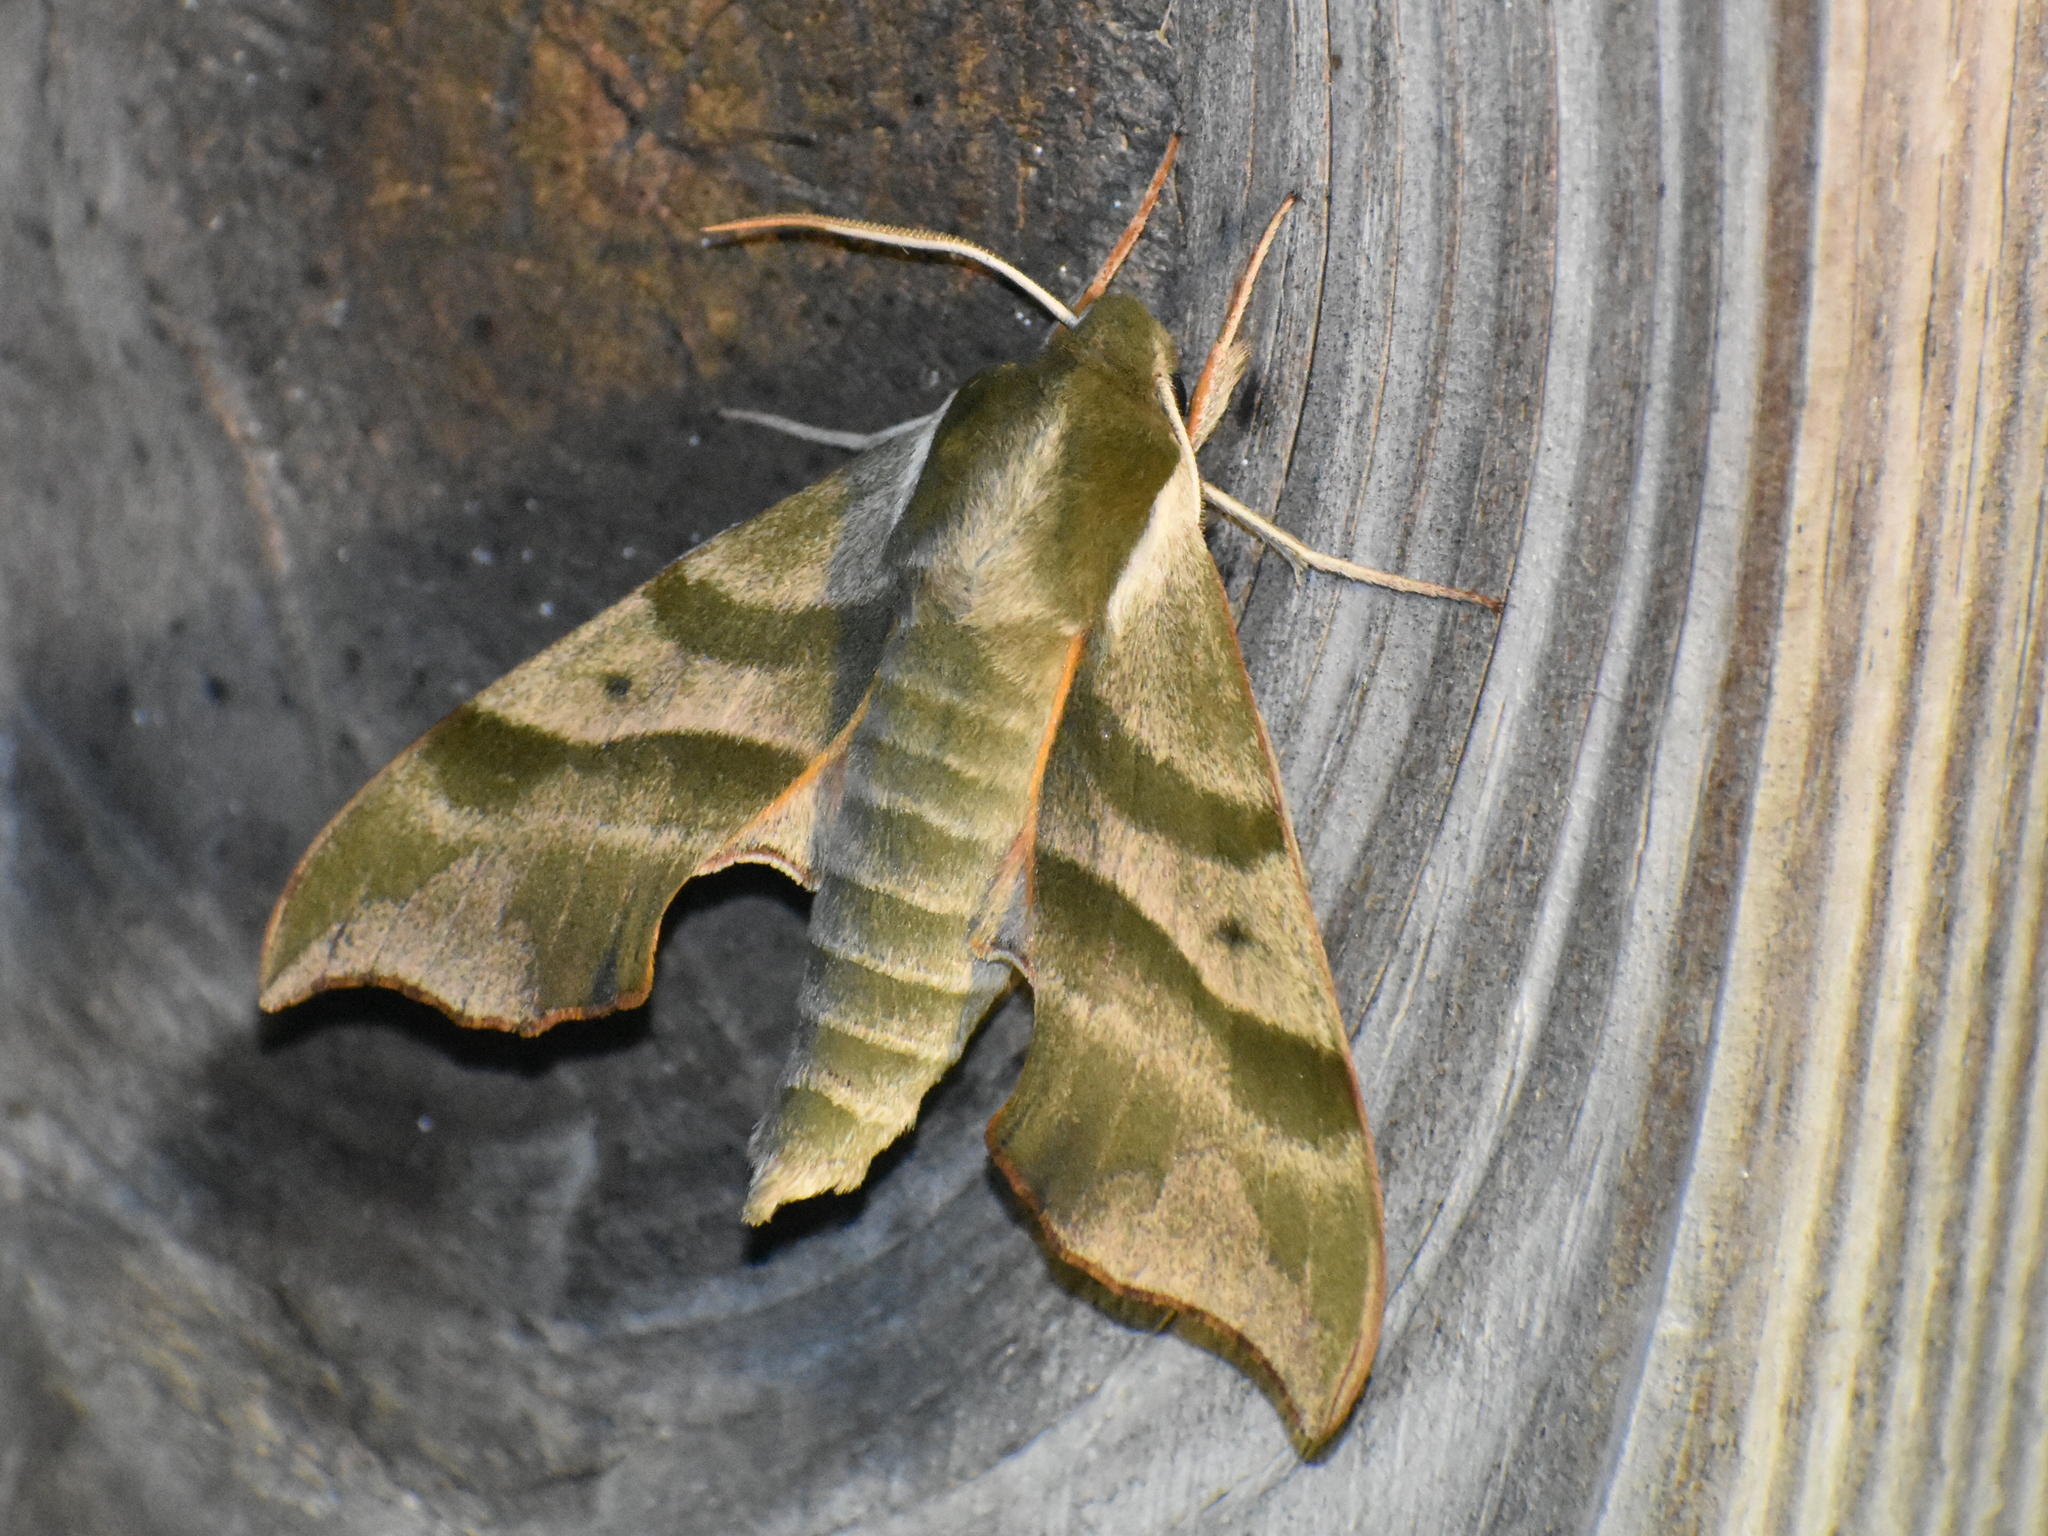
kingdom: Animalia
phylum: Arthropoda
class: Insecta
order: Lepidoptera
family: Sphingidae
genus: Darapsa
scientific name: Darapsa myron
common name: Hog sphinx
